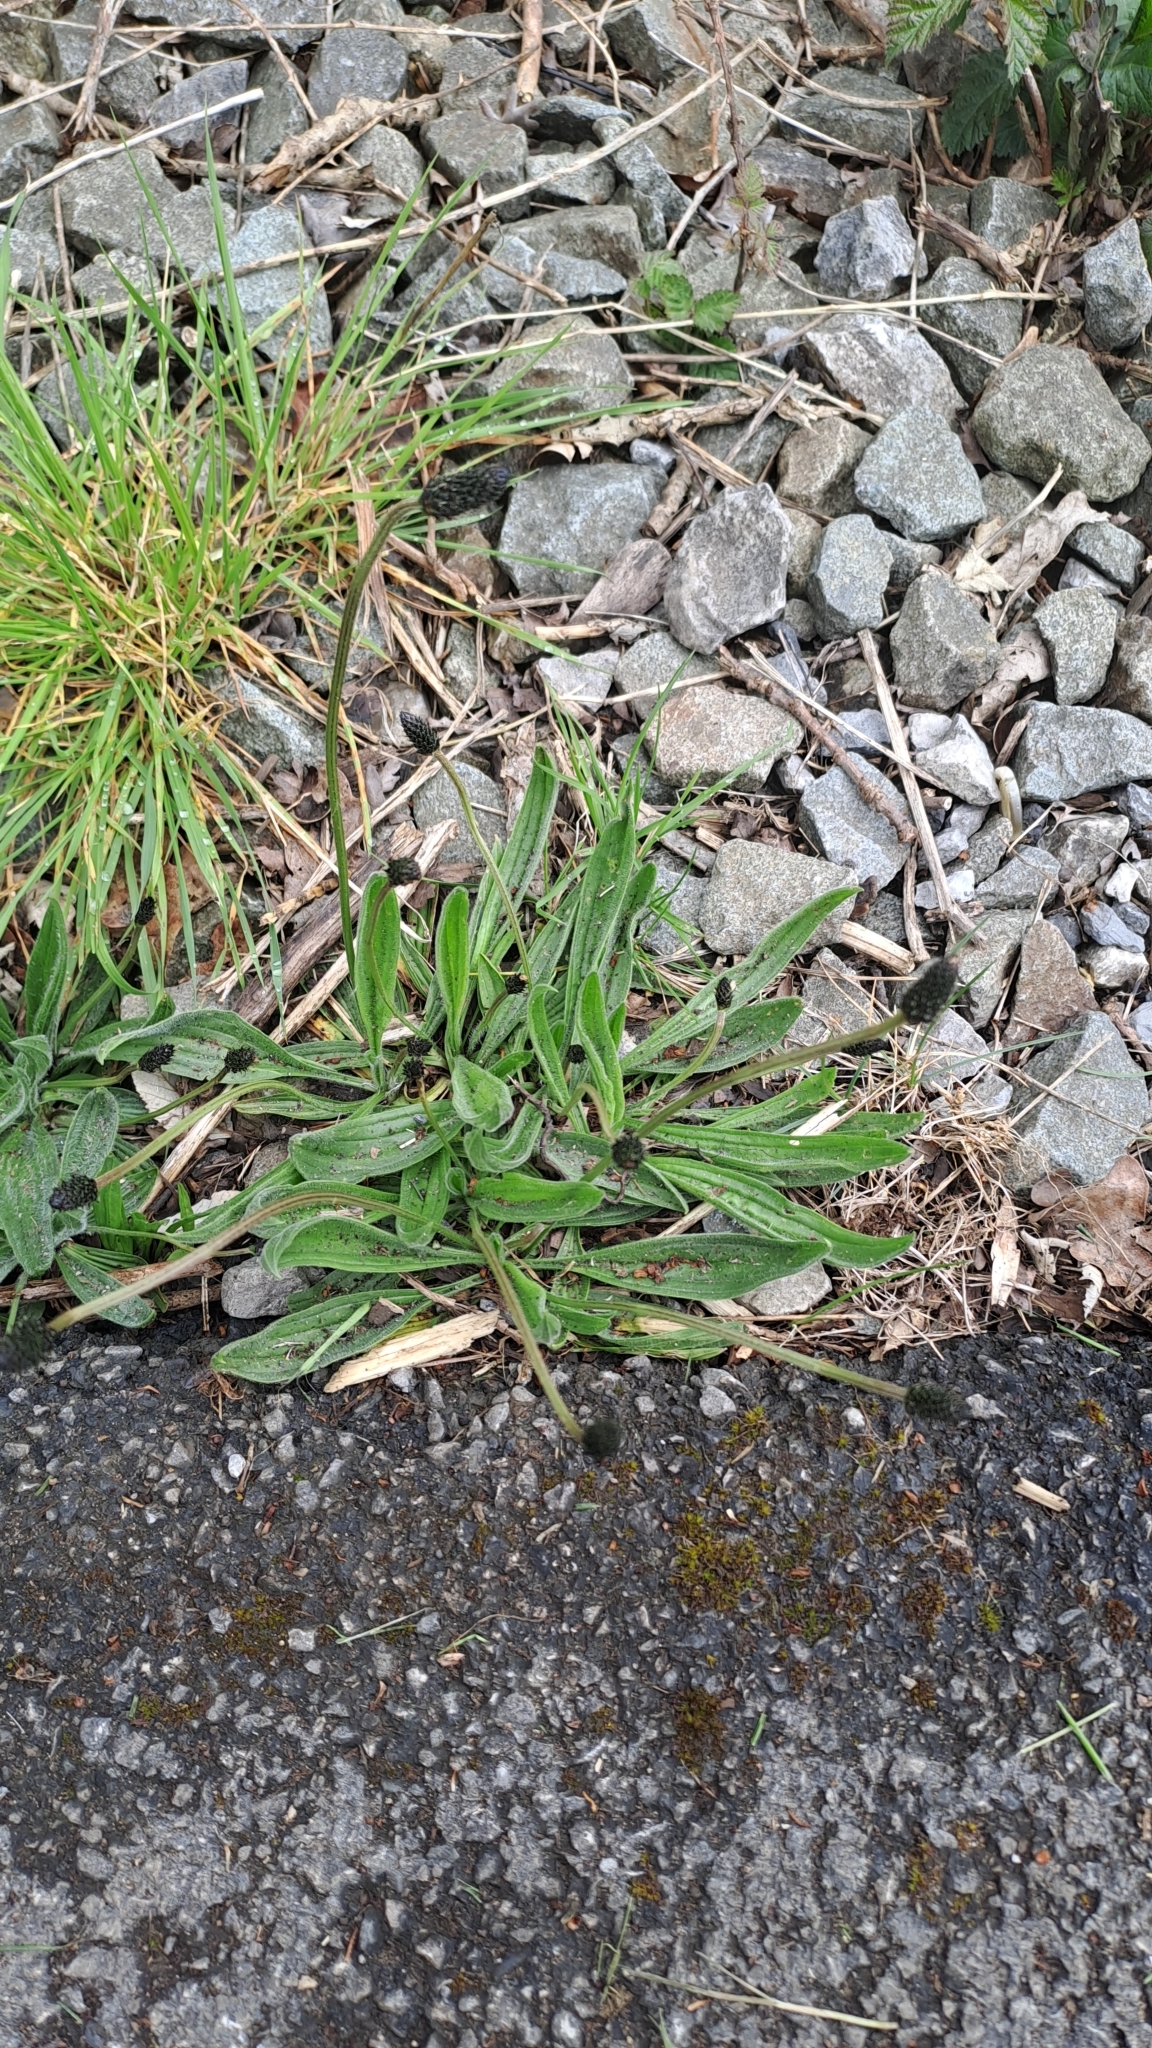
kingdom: Plantae
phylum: Tracheophyta
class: Magnoliopsida
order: Lamiales
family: Plantaginaceae
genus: Plantago
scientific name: Plantago lanceolata
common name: Ribwort plantain
